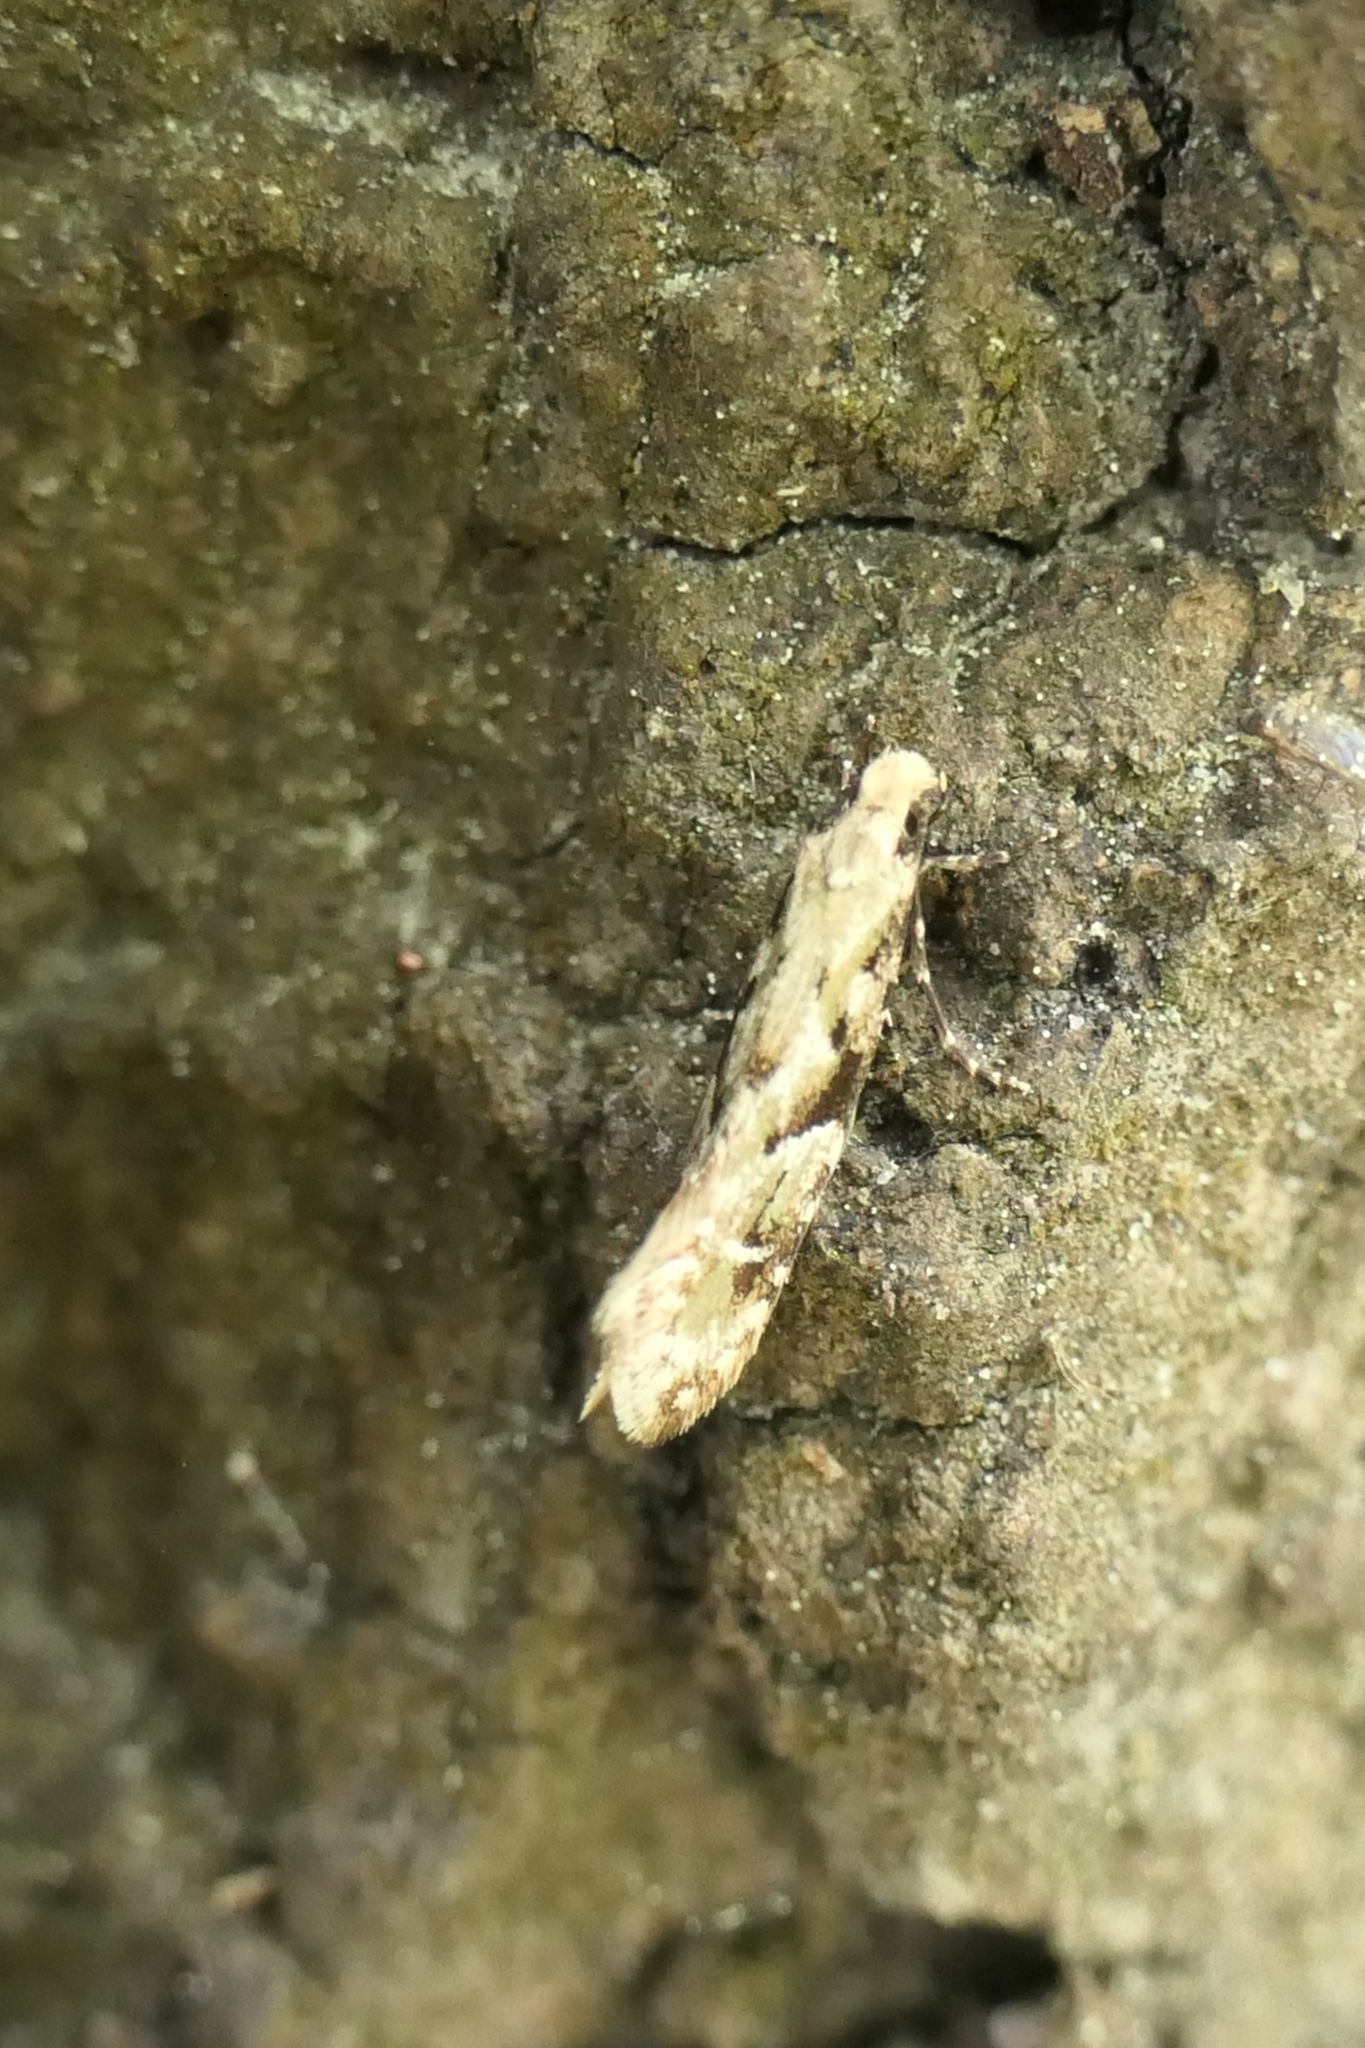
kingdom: Animalia
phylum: Arthropoda
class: Insecta
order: Lepidoptera
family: Tineidae
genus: Crypsitricha
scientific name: Crypsitricha mesotypa
